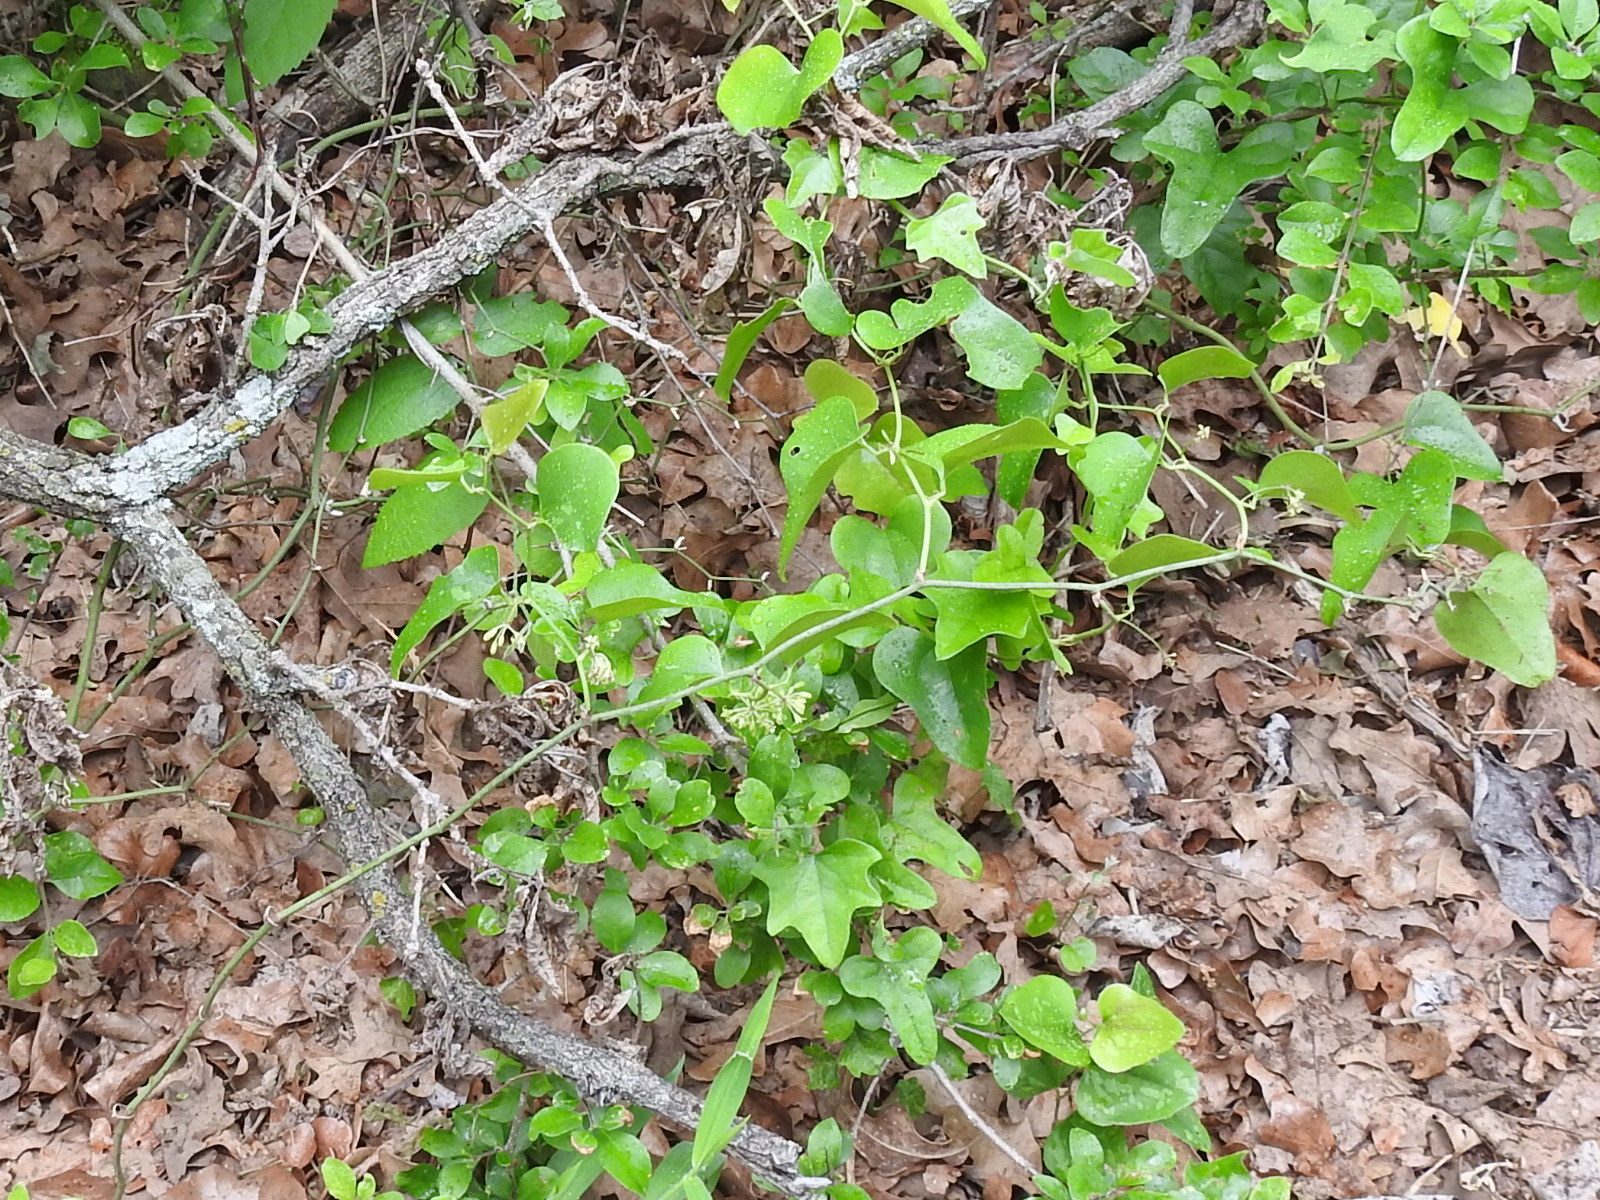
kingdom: Plantae
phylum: Tracheophyta
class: Liliopsida
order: Liliales
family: Smilacaceae
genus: Smilax
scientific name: Smilax bona-nox
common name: Catbrier
